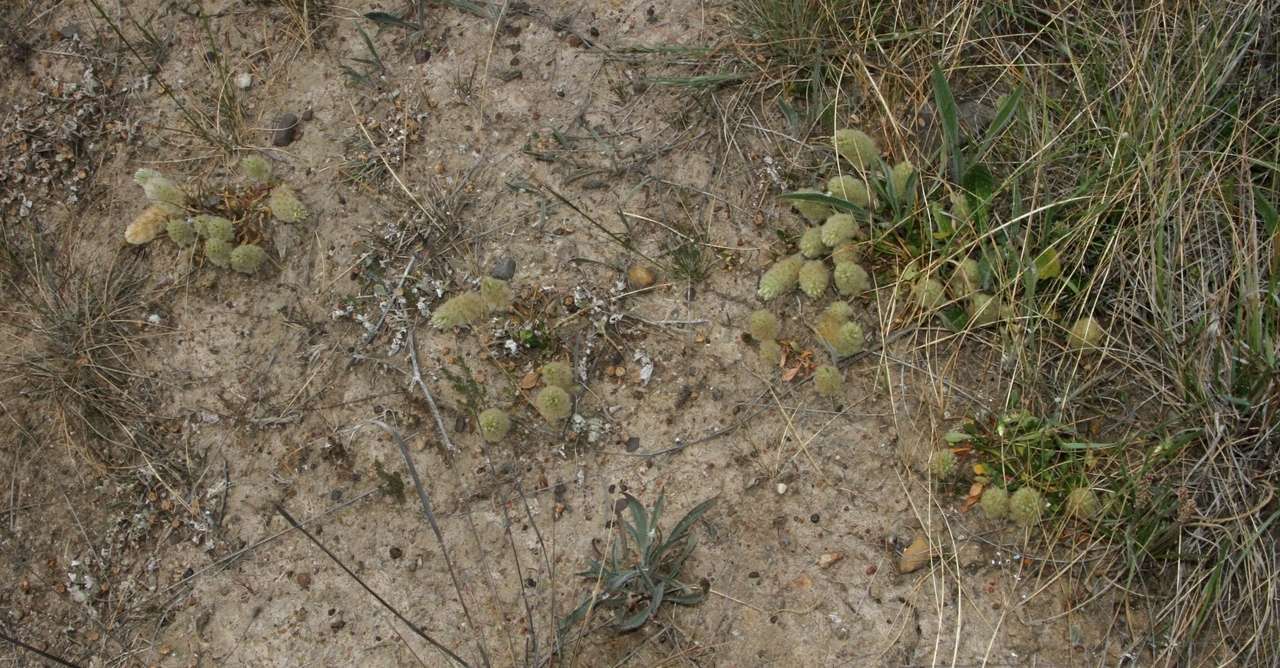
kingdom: Plantae
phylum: Tracheophyta
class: Magnoliopsida
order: Caryophyllales
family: Amaranthaceae
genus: Ptilotus
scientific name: Ptilotus spathulatus
